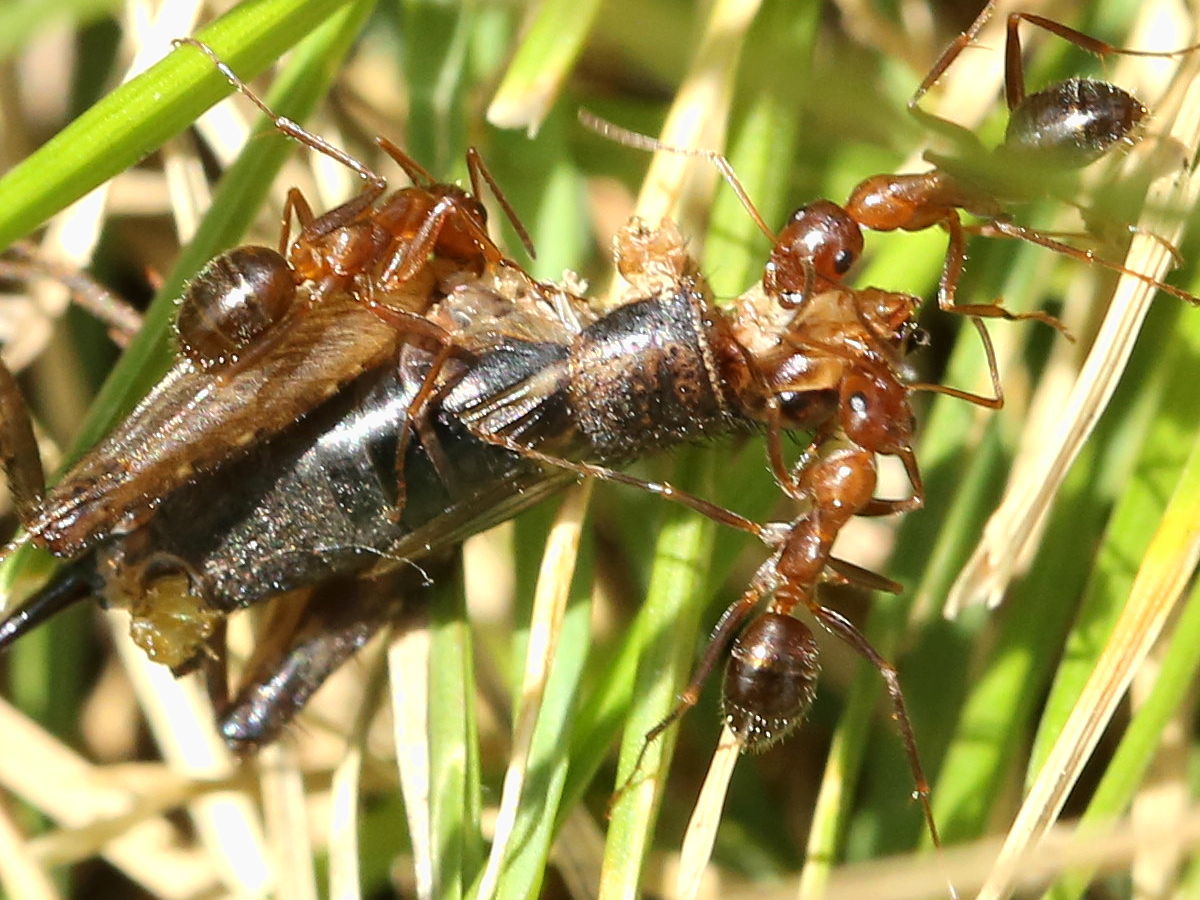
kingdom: Animalia
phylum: Arthropoda
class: Insecta
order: Hymenoptera
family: Formicidae
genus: Formica
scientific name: Formica pallidefulva
